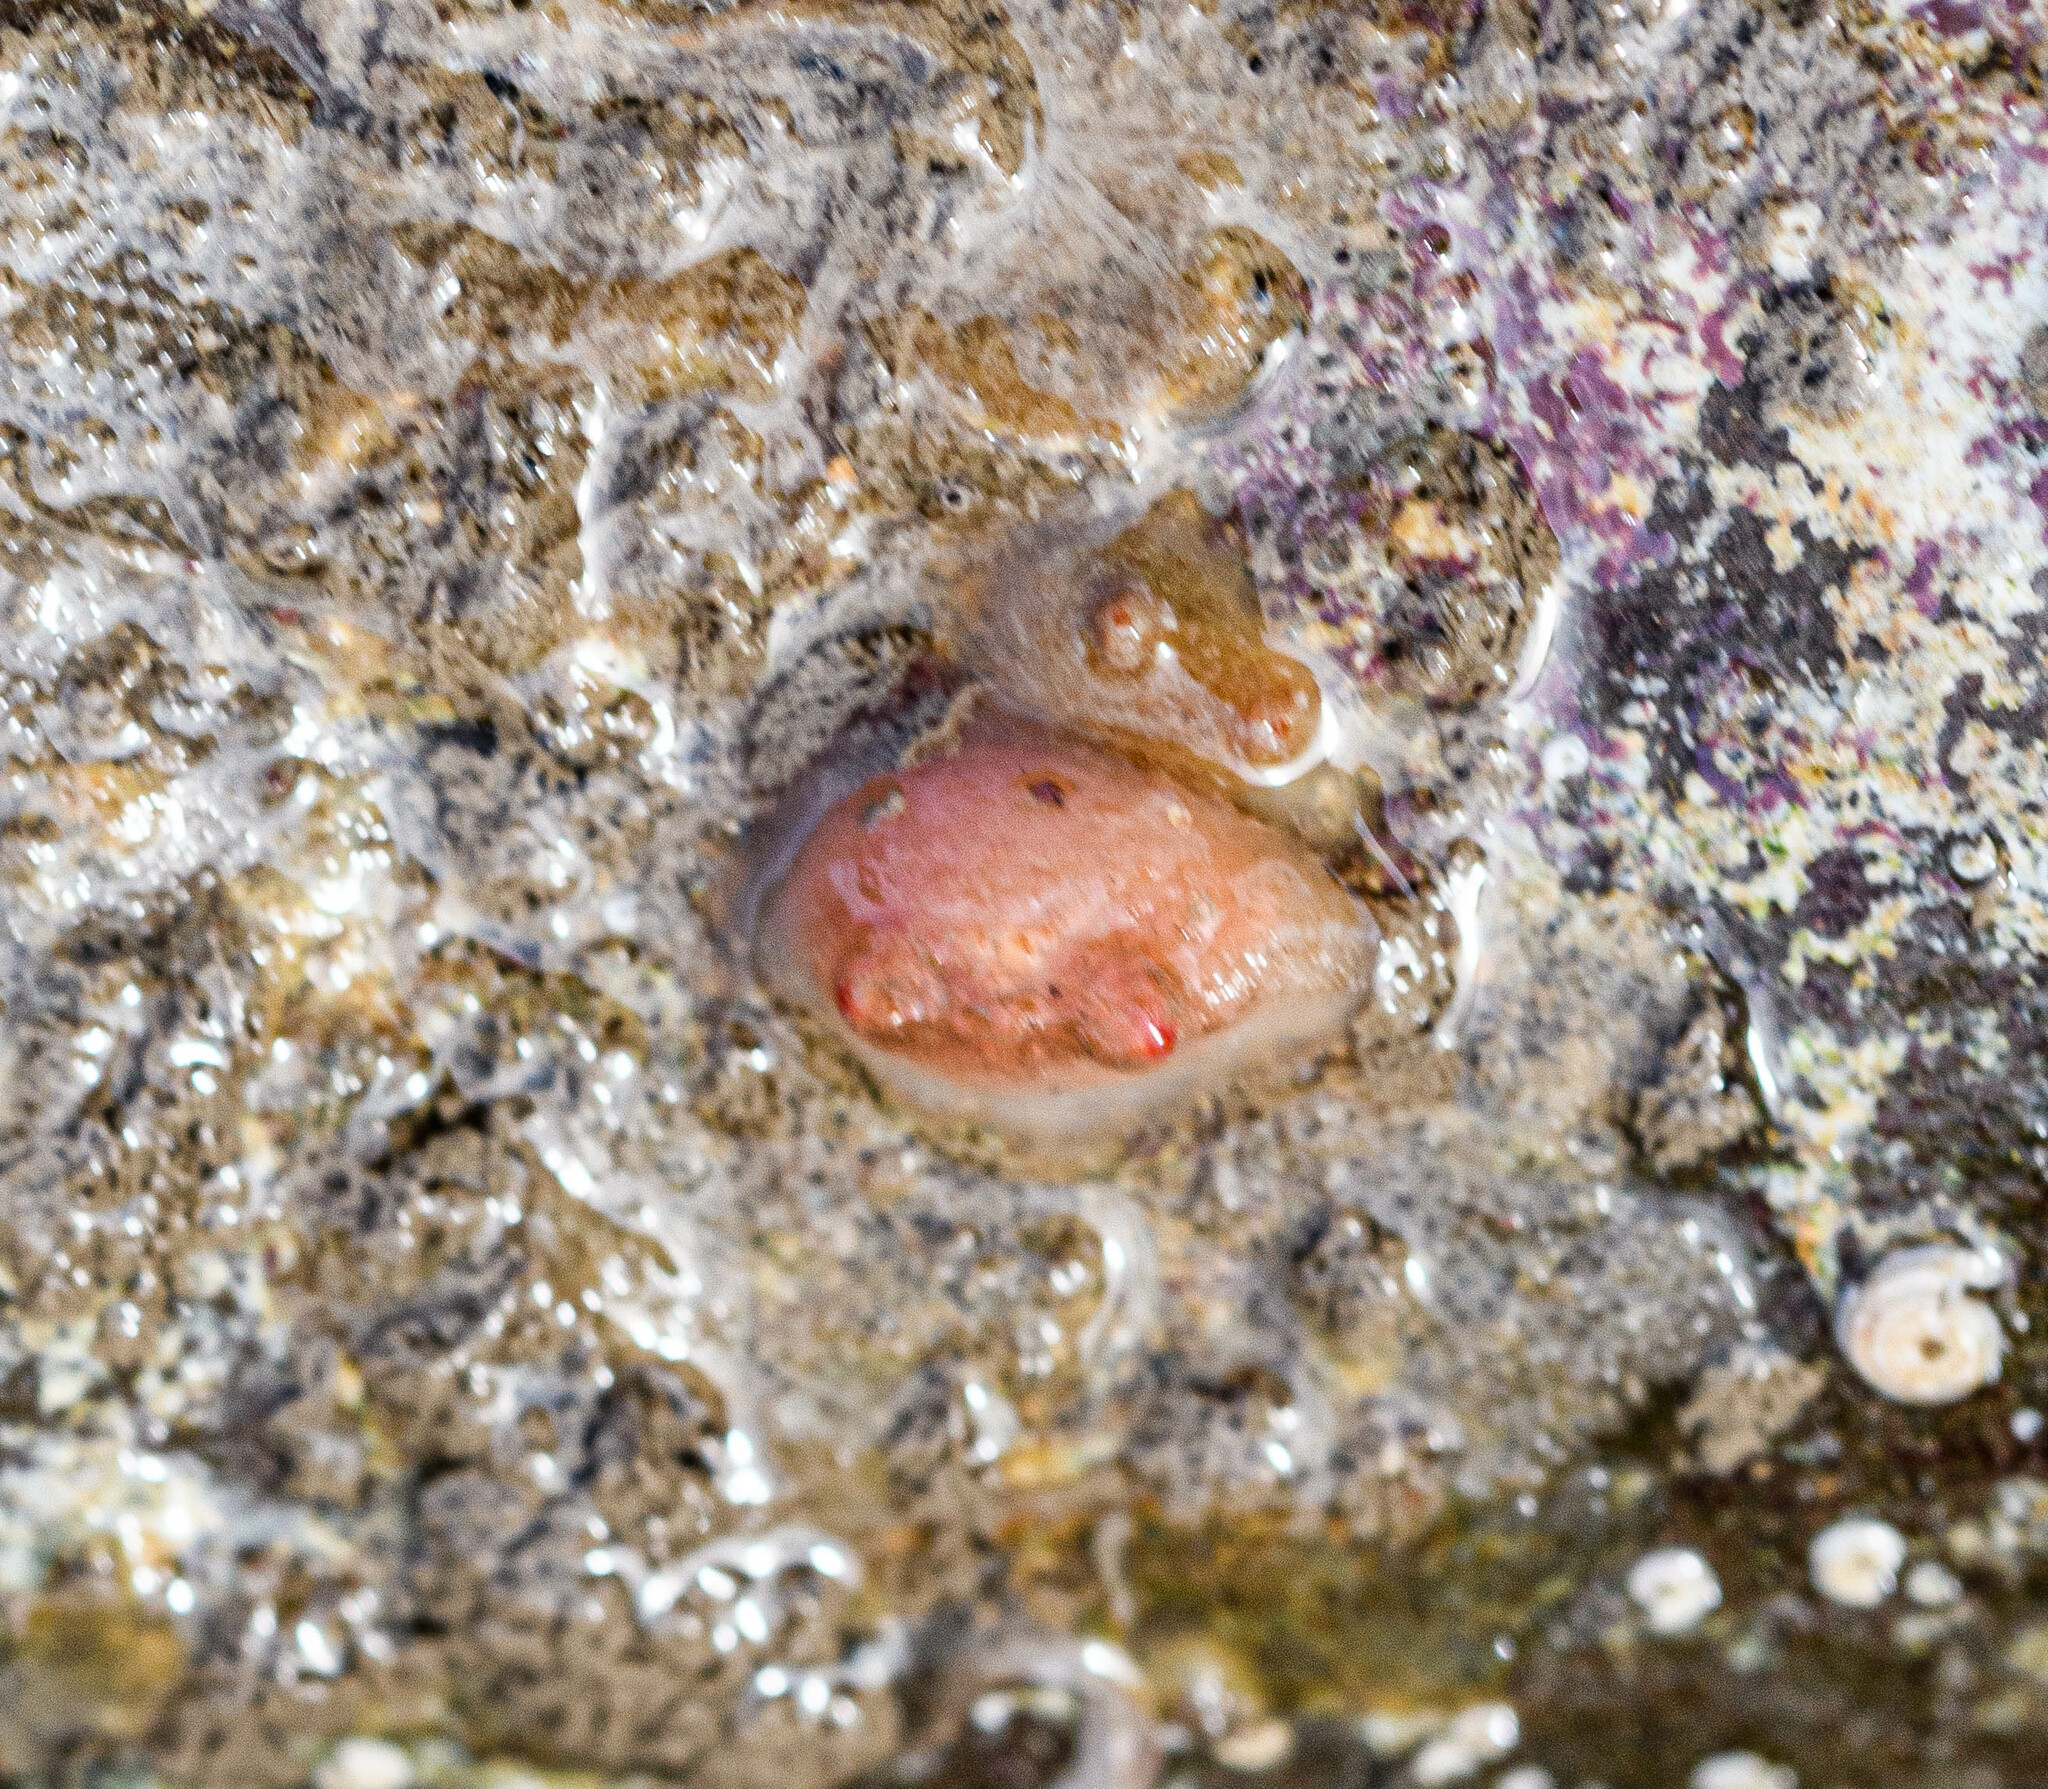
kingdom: Animalia
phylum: Chordata
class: Ascidiacea
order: Stolidobranchia
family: Styelidae
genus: Dendrodoa
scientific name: Dendrodoa grossularia
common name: Baked bean ascidian
